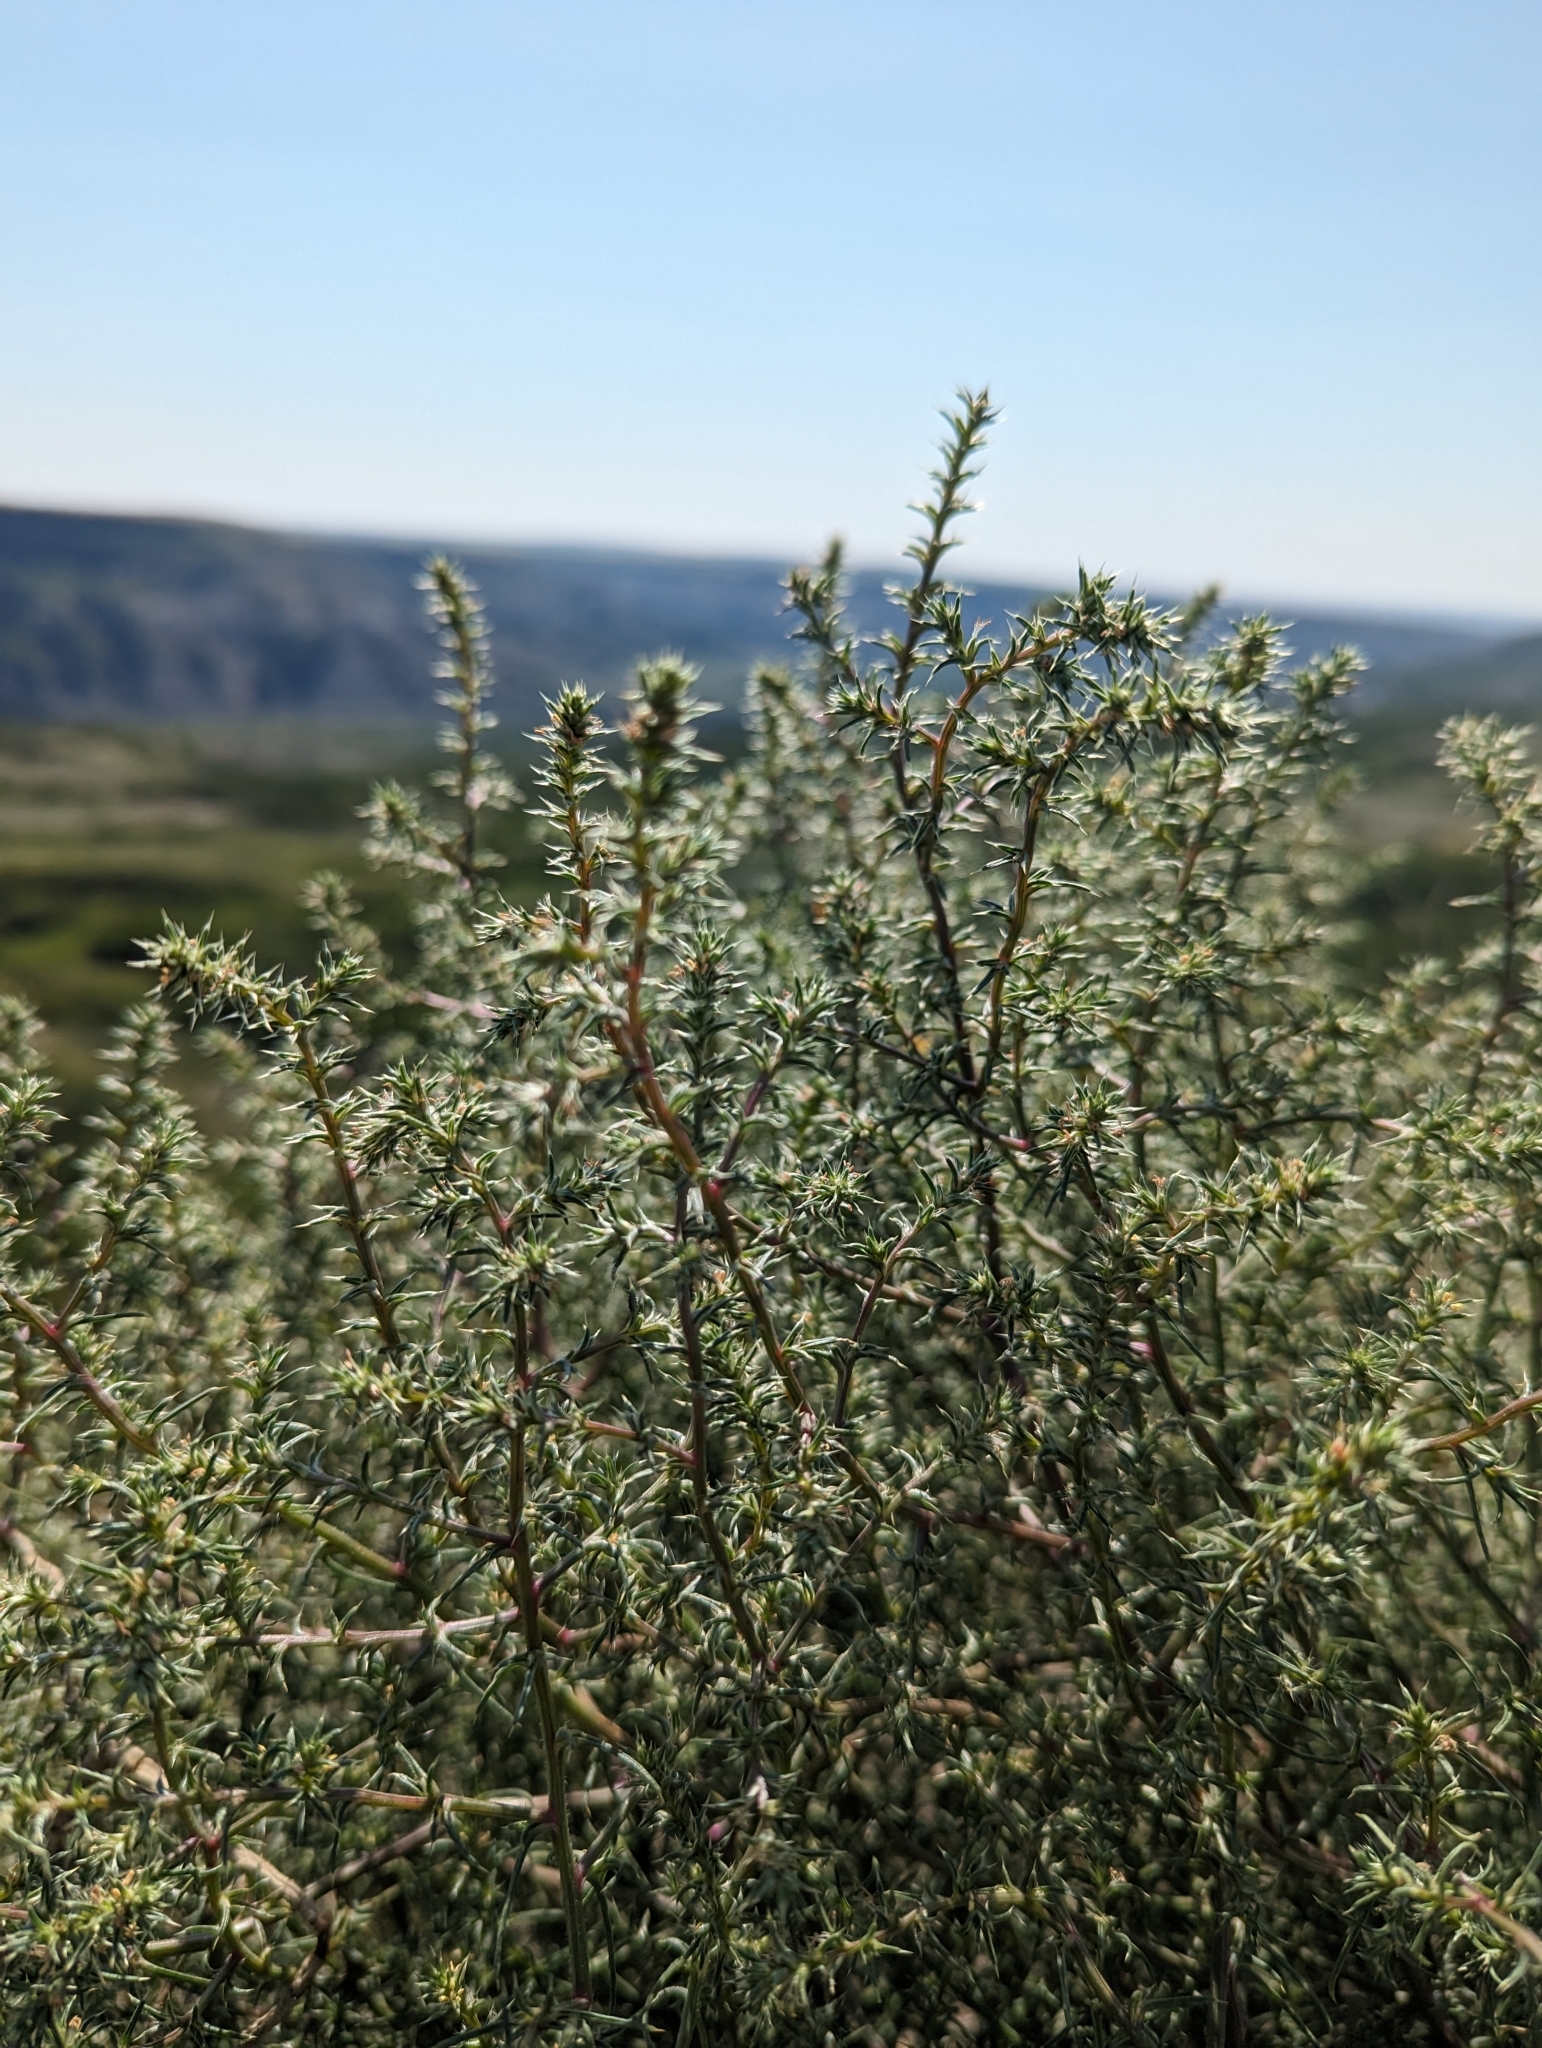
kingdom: Plantae
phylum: Tracheophyta
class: Magnoliopsida
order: Caryophyllales
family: Amaranthaceae
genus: Salsola
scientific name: Salsola tragus
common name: Prickly russian thistle
